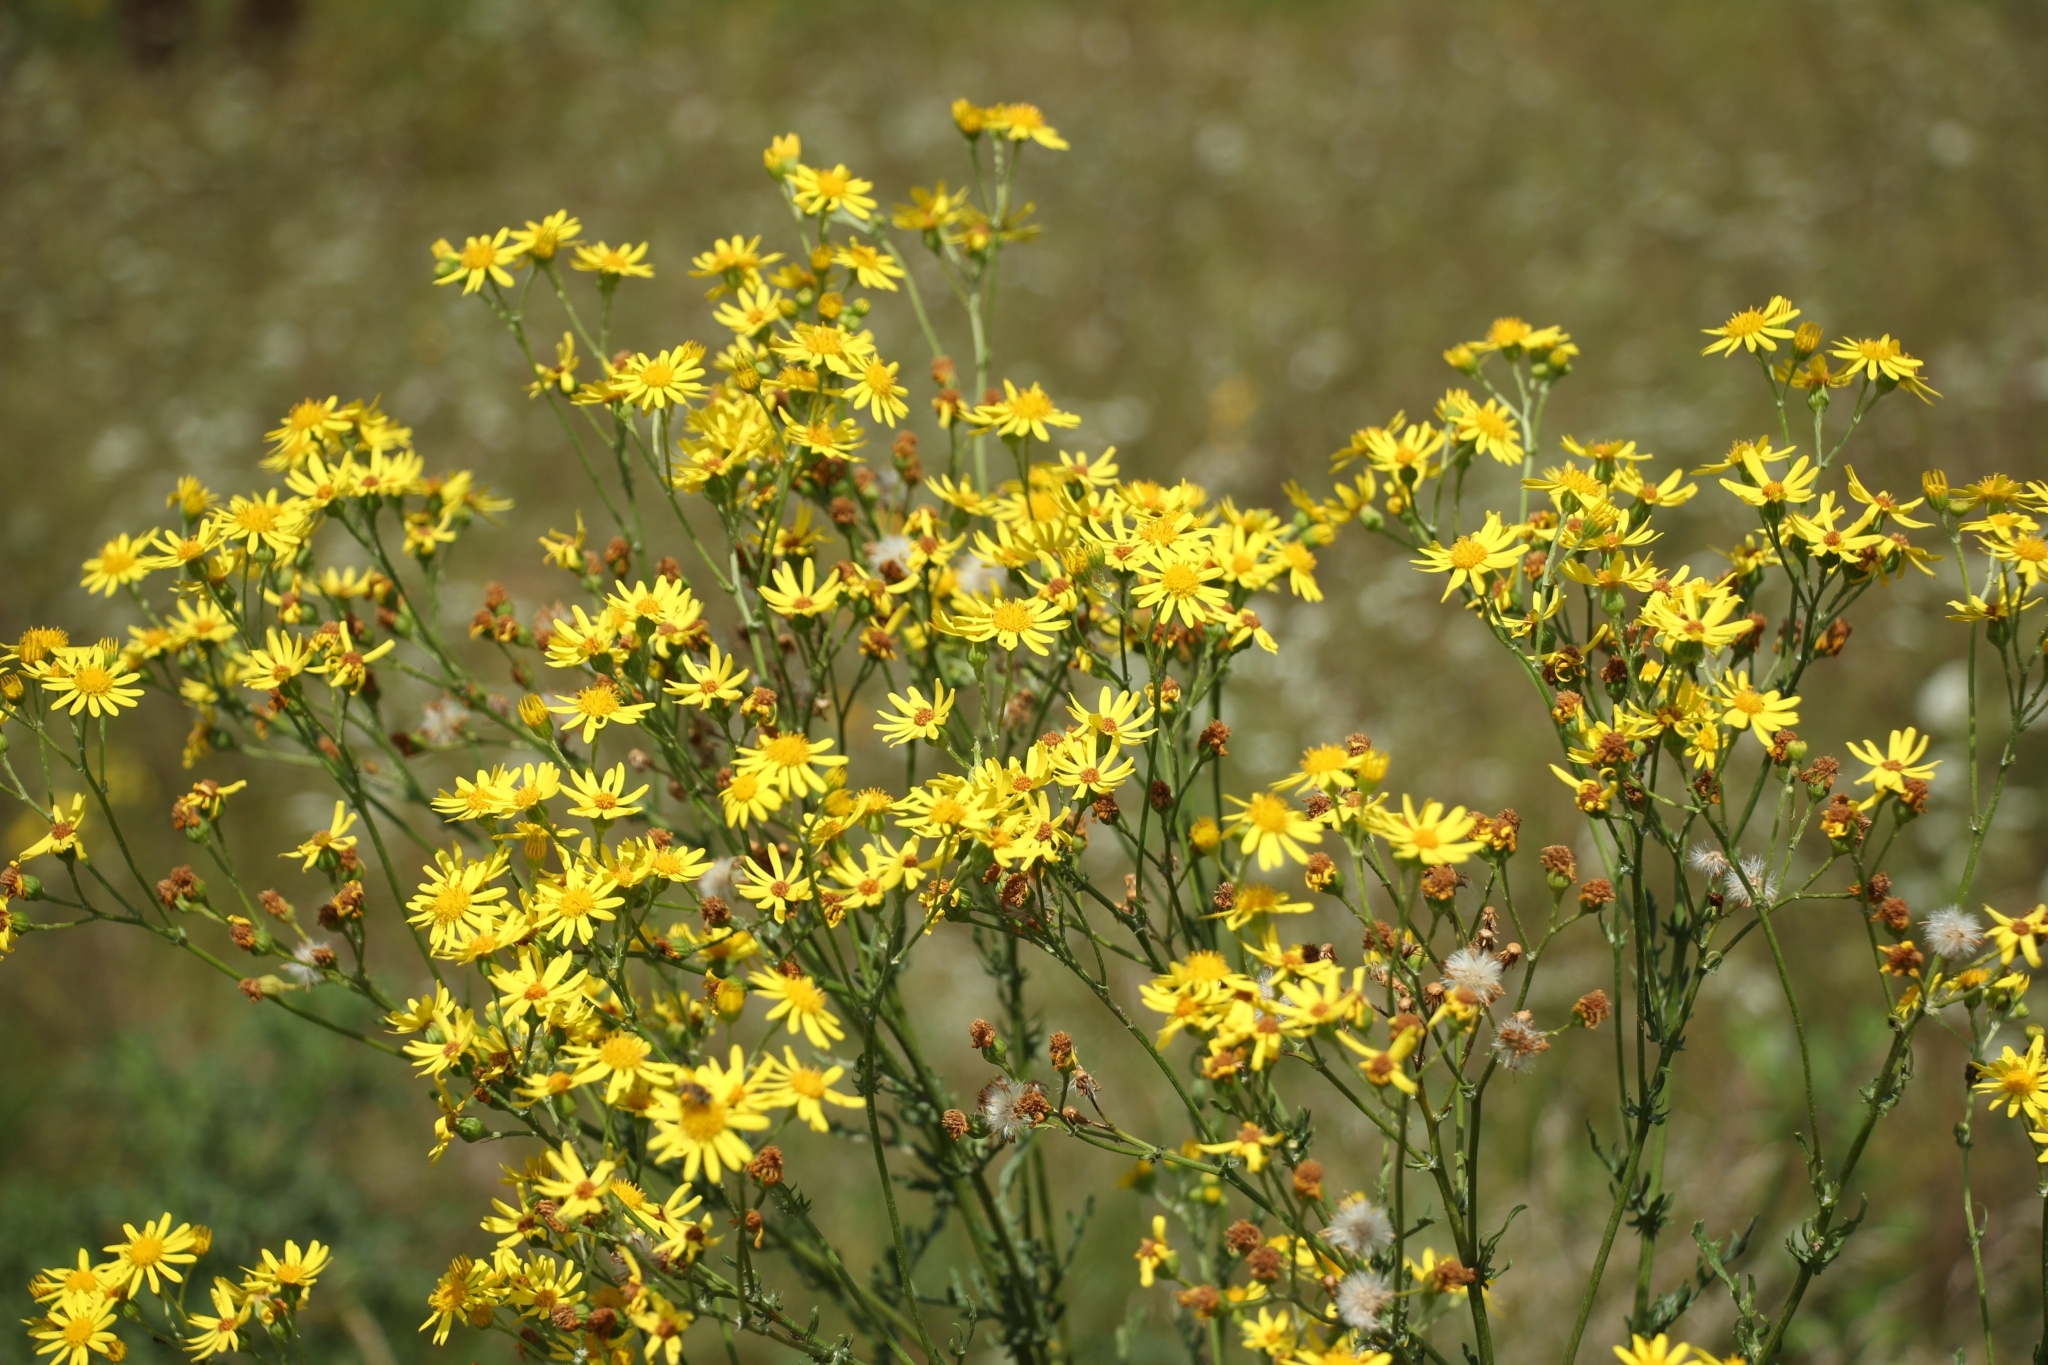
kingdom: Plantae
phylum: Tracheophyta
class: Magnoliopsida
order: Asterales
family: Asteraceae
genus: Jacobaea
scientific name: Jacobaea vulgaris
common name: Stinking willie
